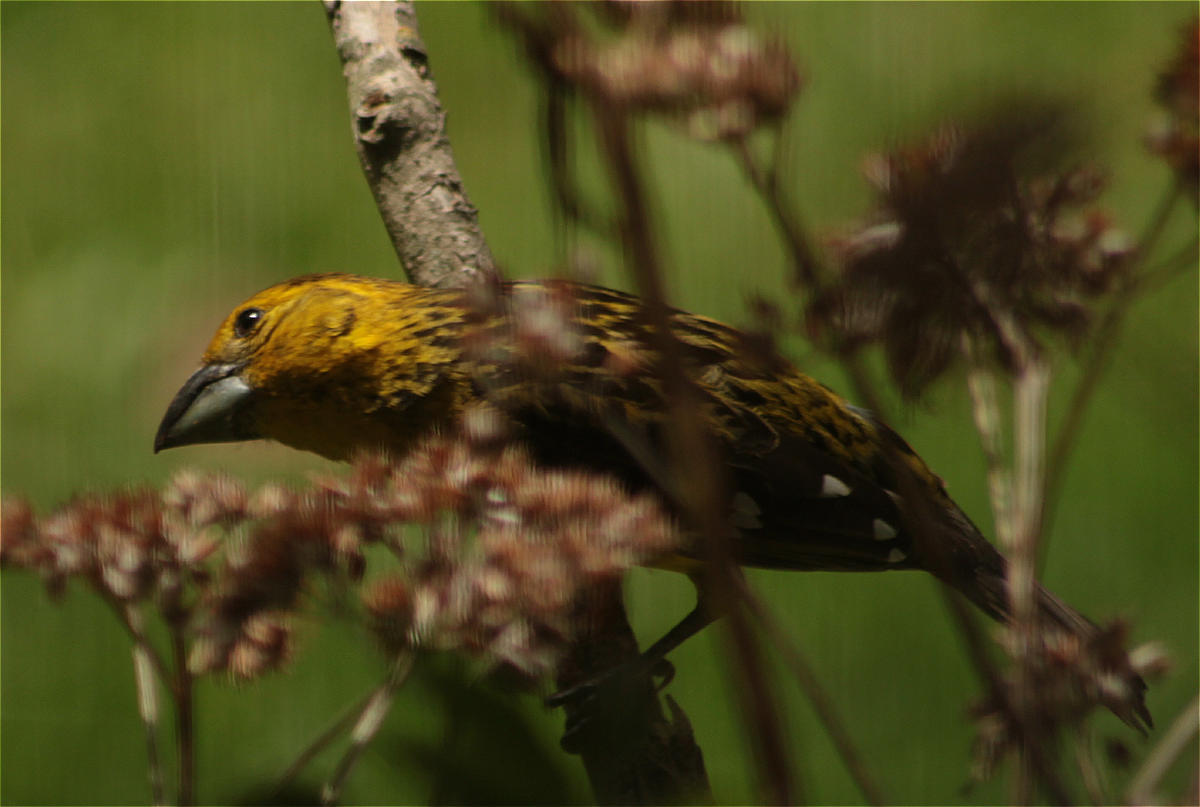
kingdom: Animalia
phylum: Chordata
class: Aves
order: Passeriformes
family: Cardinalidae
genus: Pheucticus
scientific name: Pheucticus chrysogaster
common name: Golden grosbeak
